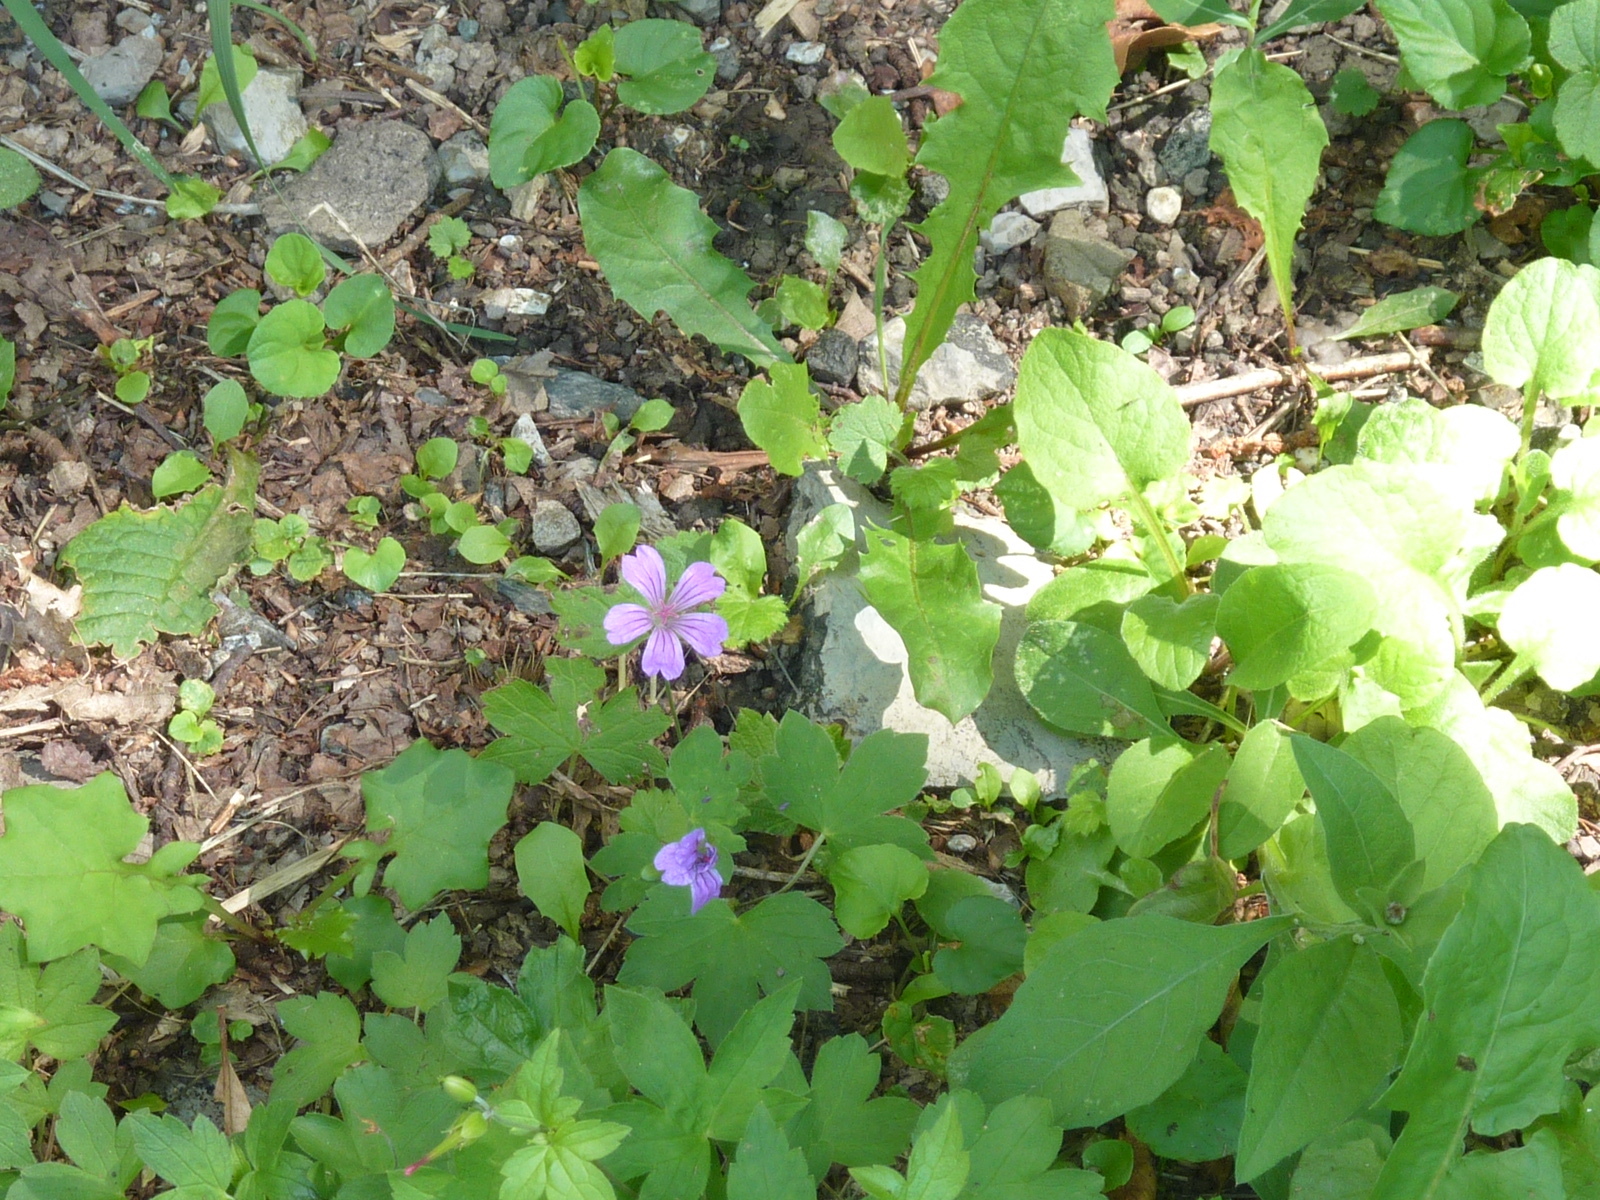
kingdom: Plantae
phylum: Tracheophyta
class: Magnoliopsida
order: Geraniales
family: Geraniaceae
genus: Geranium
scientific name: Geranium nodosum
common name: Knotted crane's-bill
